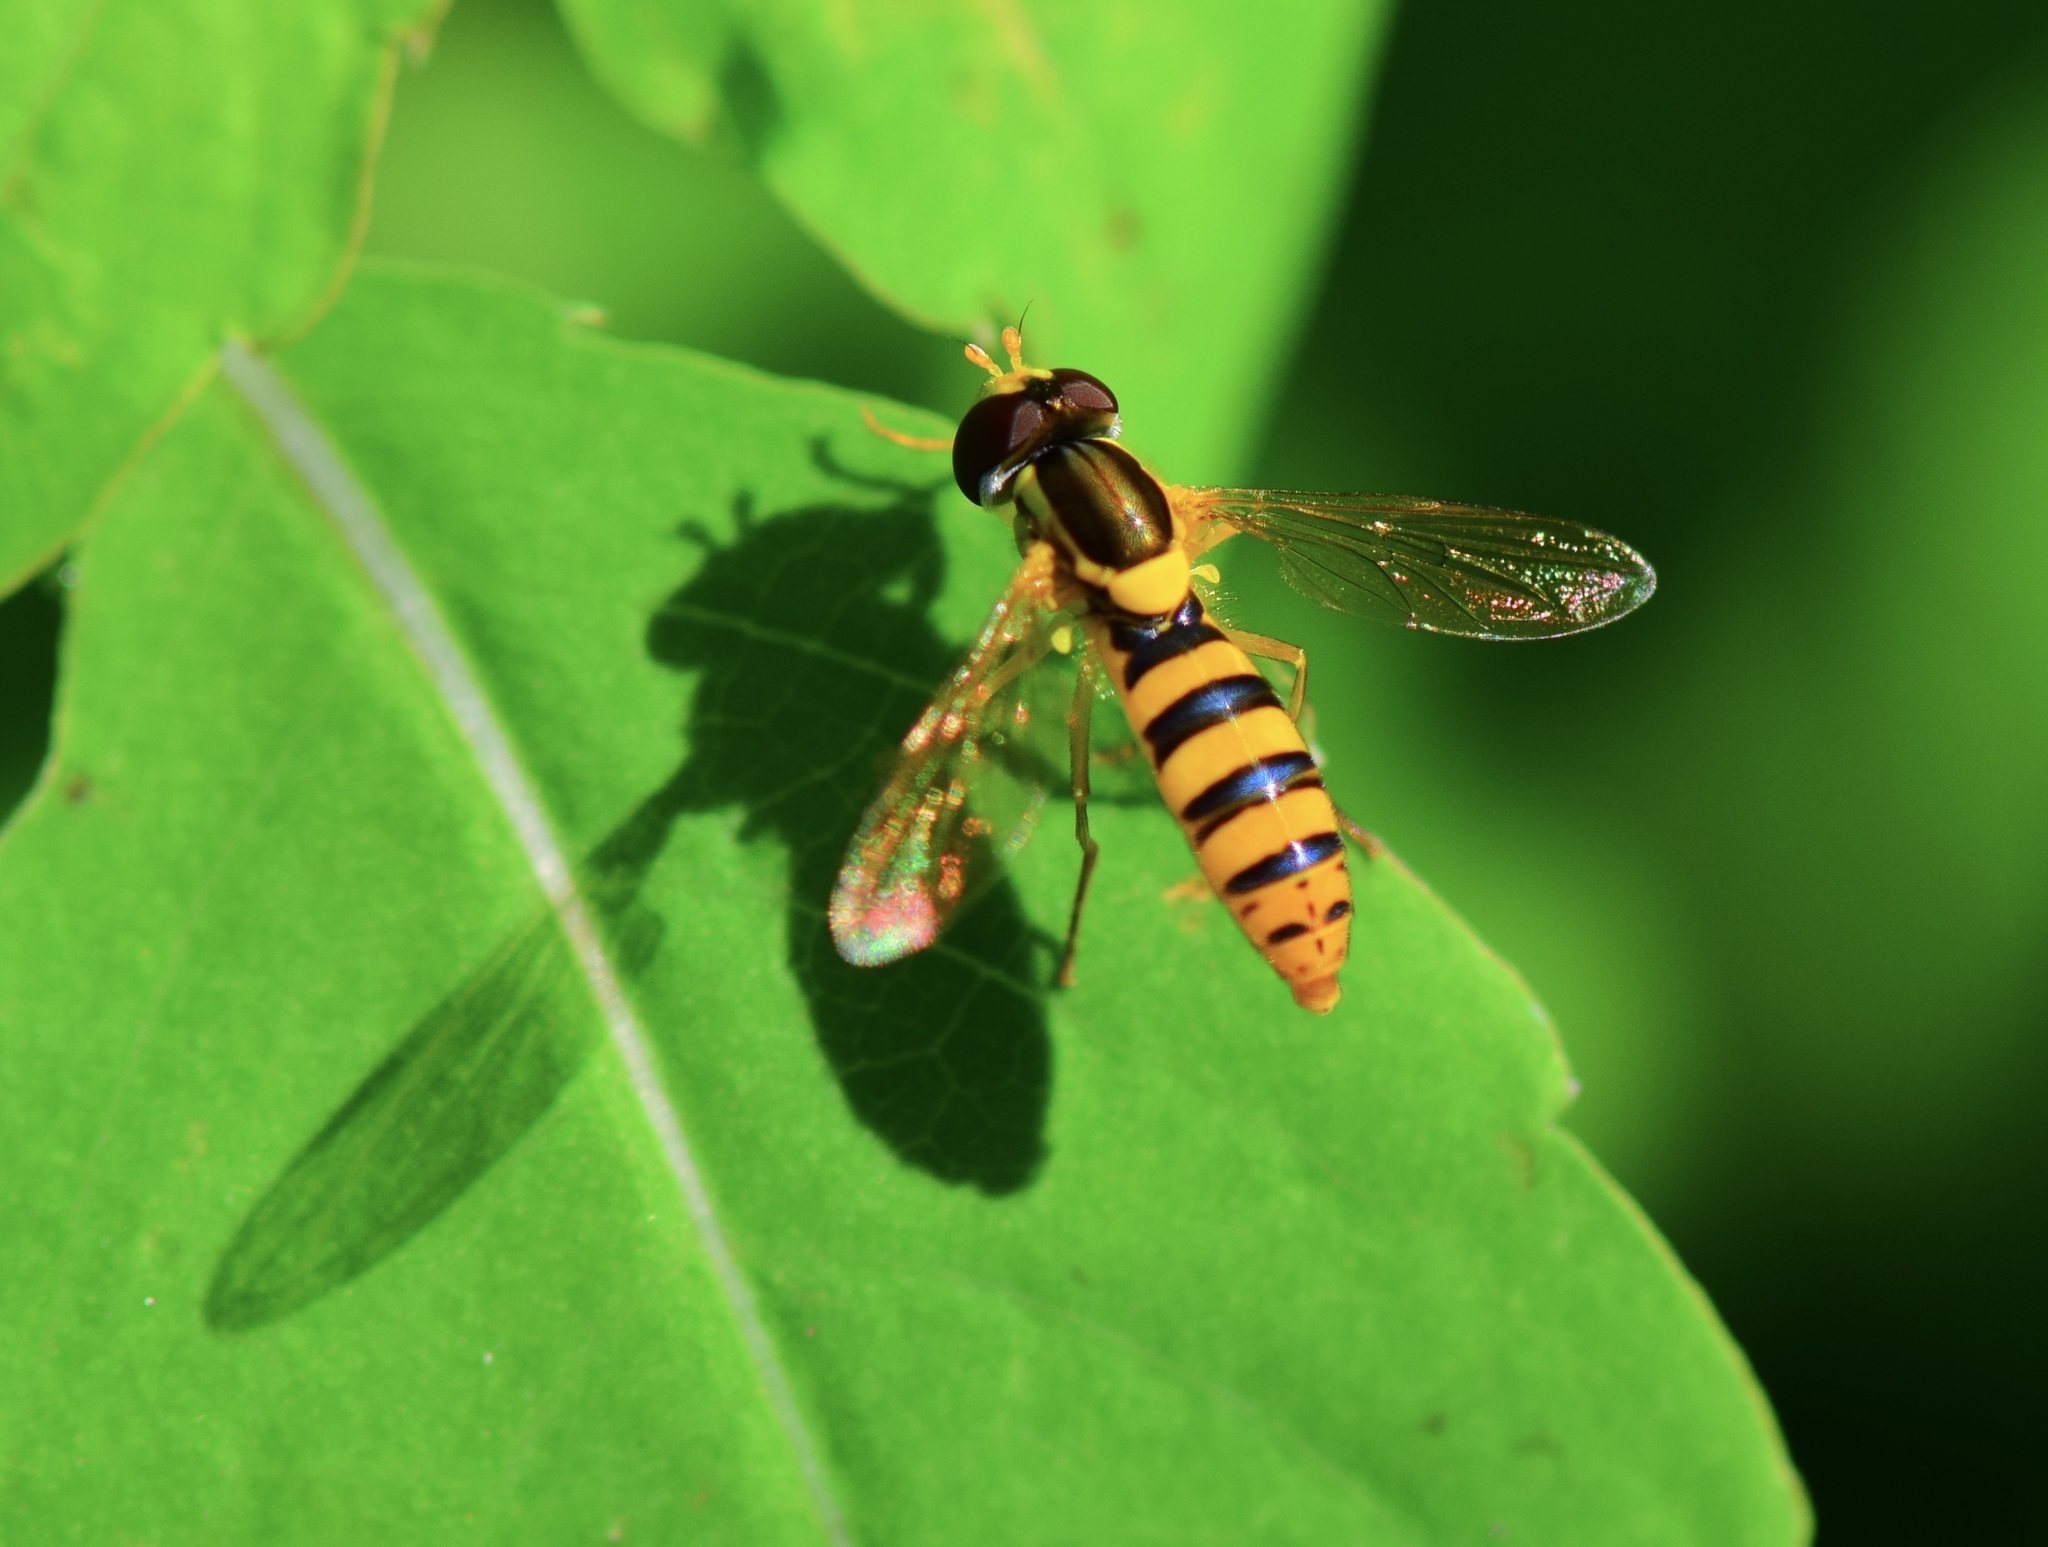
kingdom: Animalia
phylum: Arthropoda
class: Insecta
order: Diptera
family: Syrphidae
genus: Sphaerophoria
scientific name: Sphaerophoria
